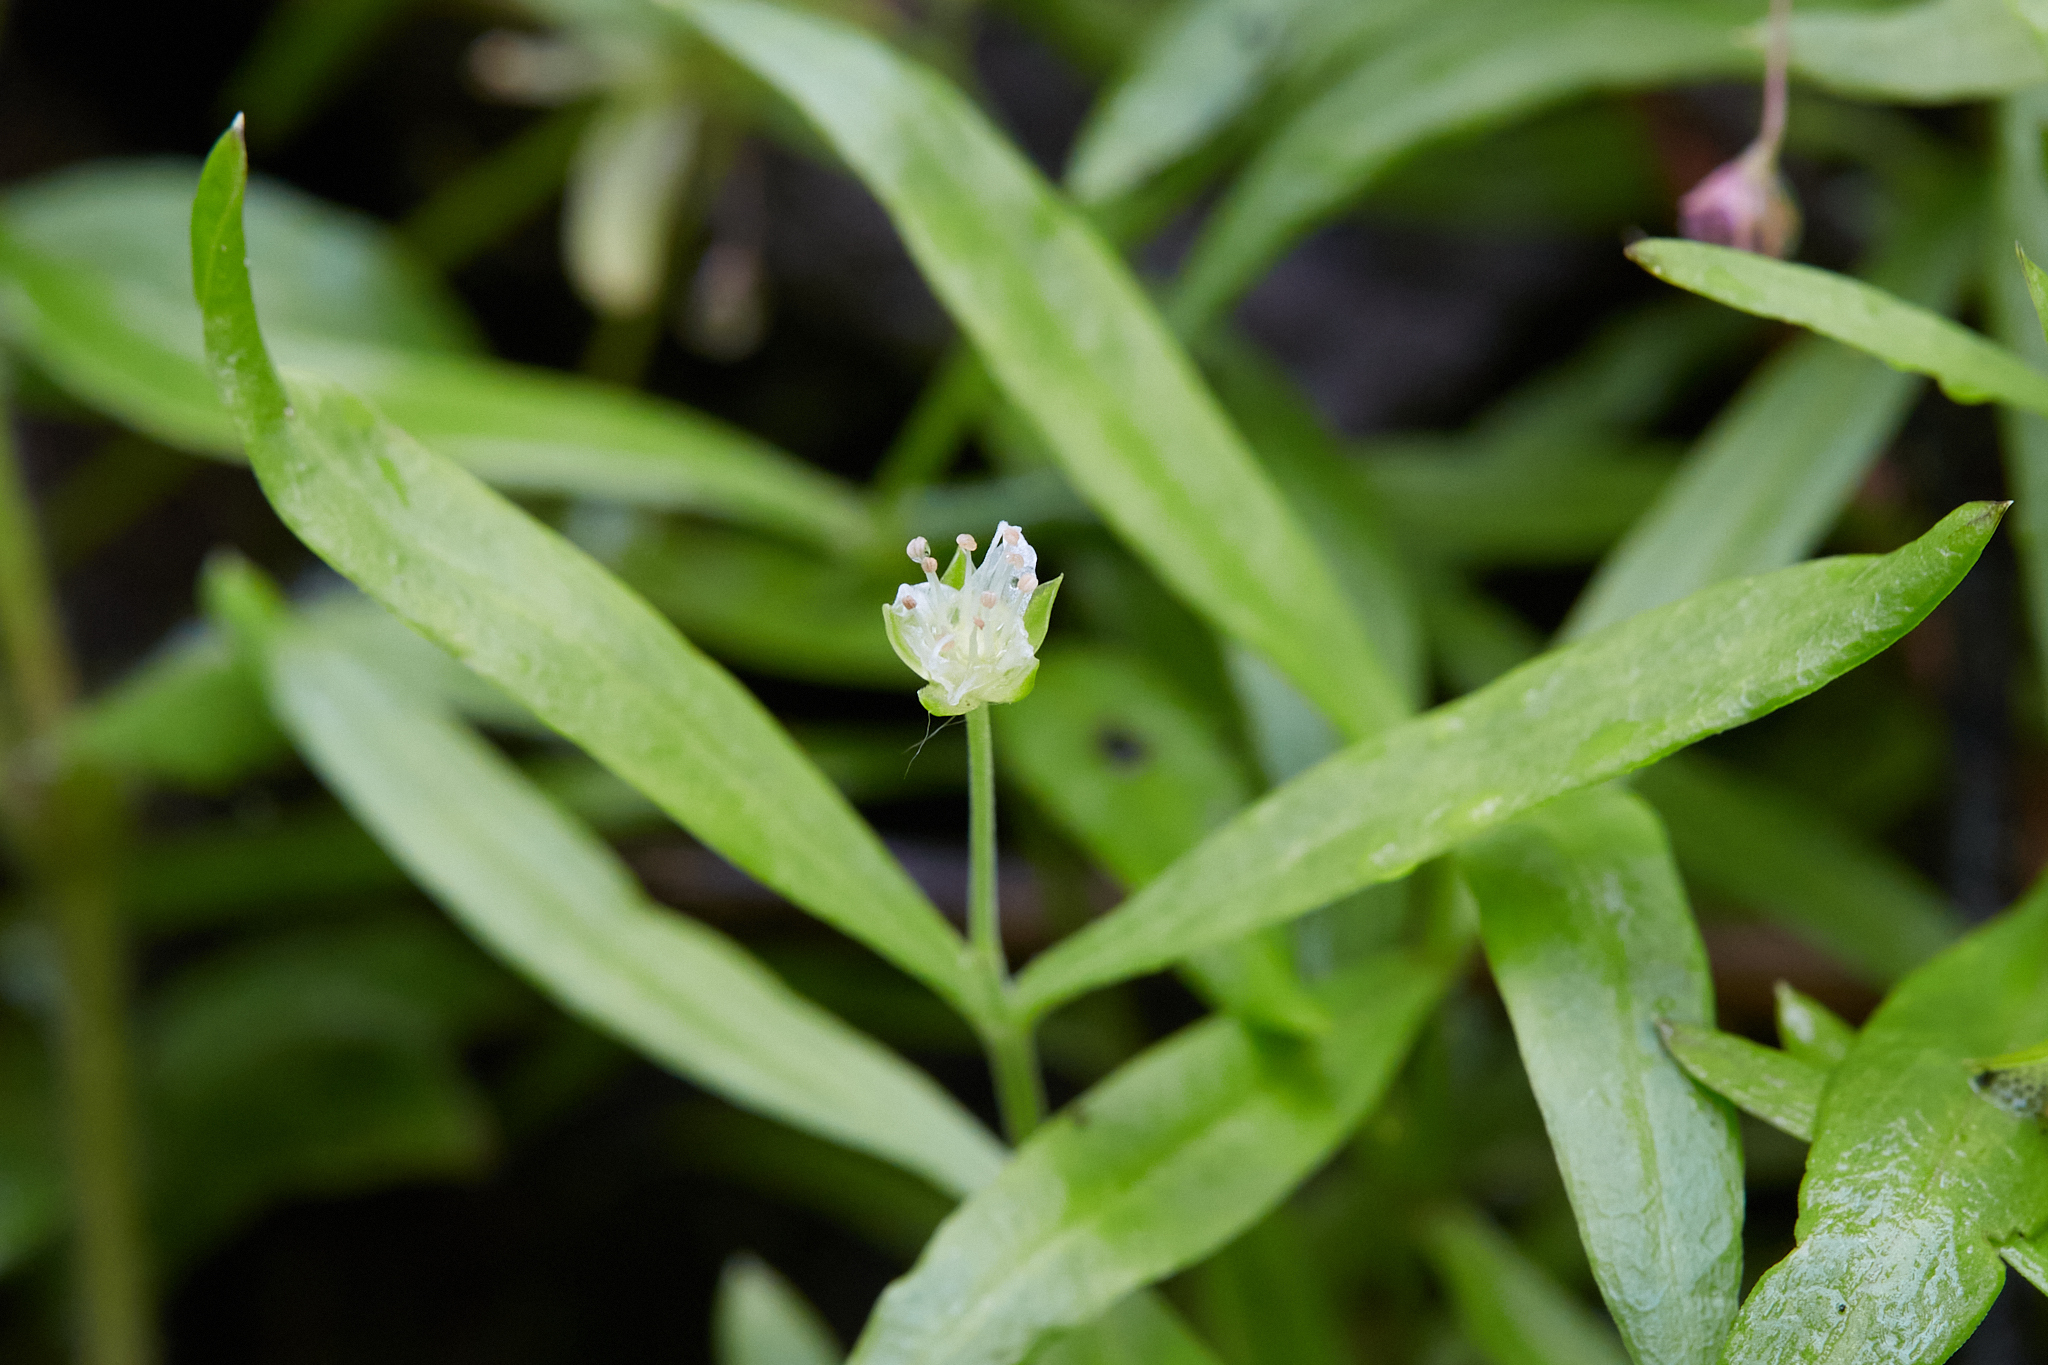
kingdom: Plantae
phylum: Tracheophyta
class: Magnoliopsida
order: Caryophyllales
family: Caryophyllaceae
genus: Moehringia
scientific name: Moehringia macrophylla
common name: Big-leaf sandwort
